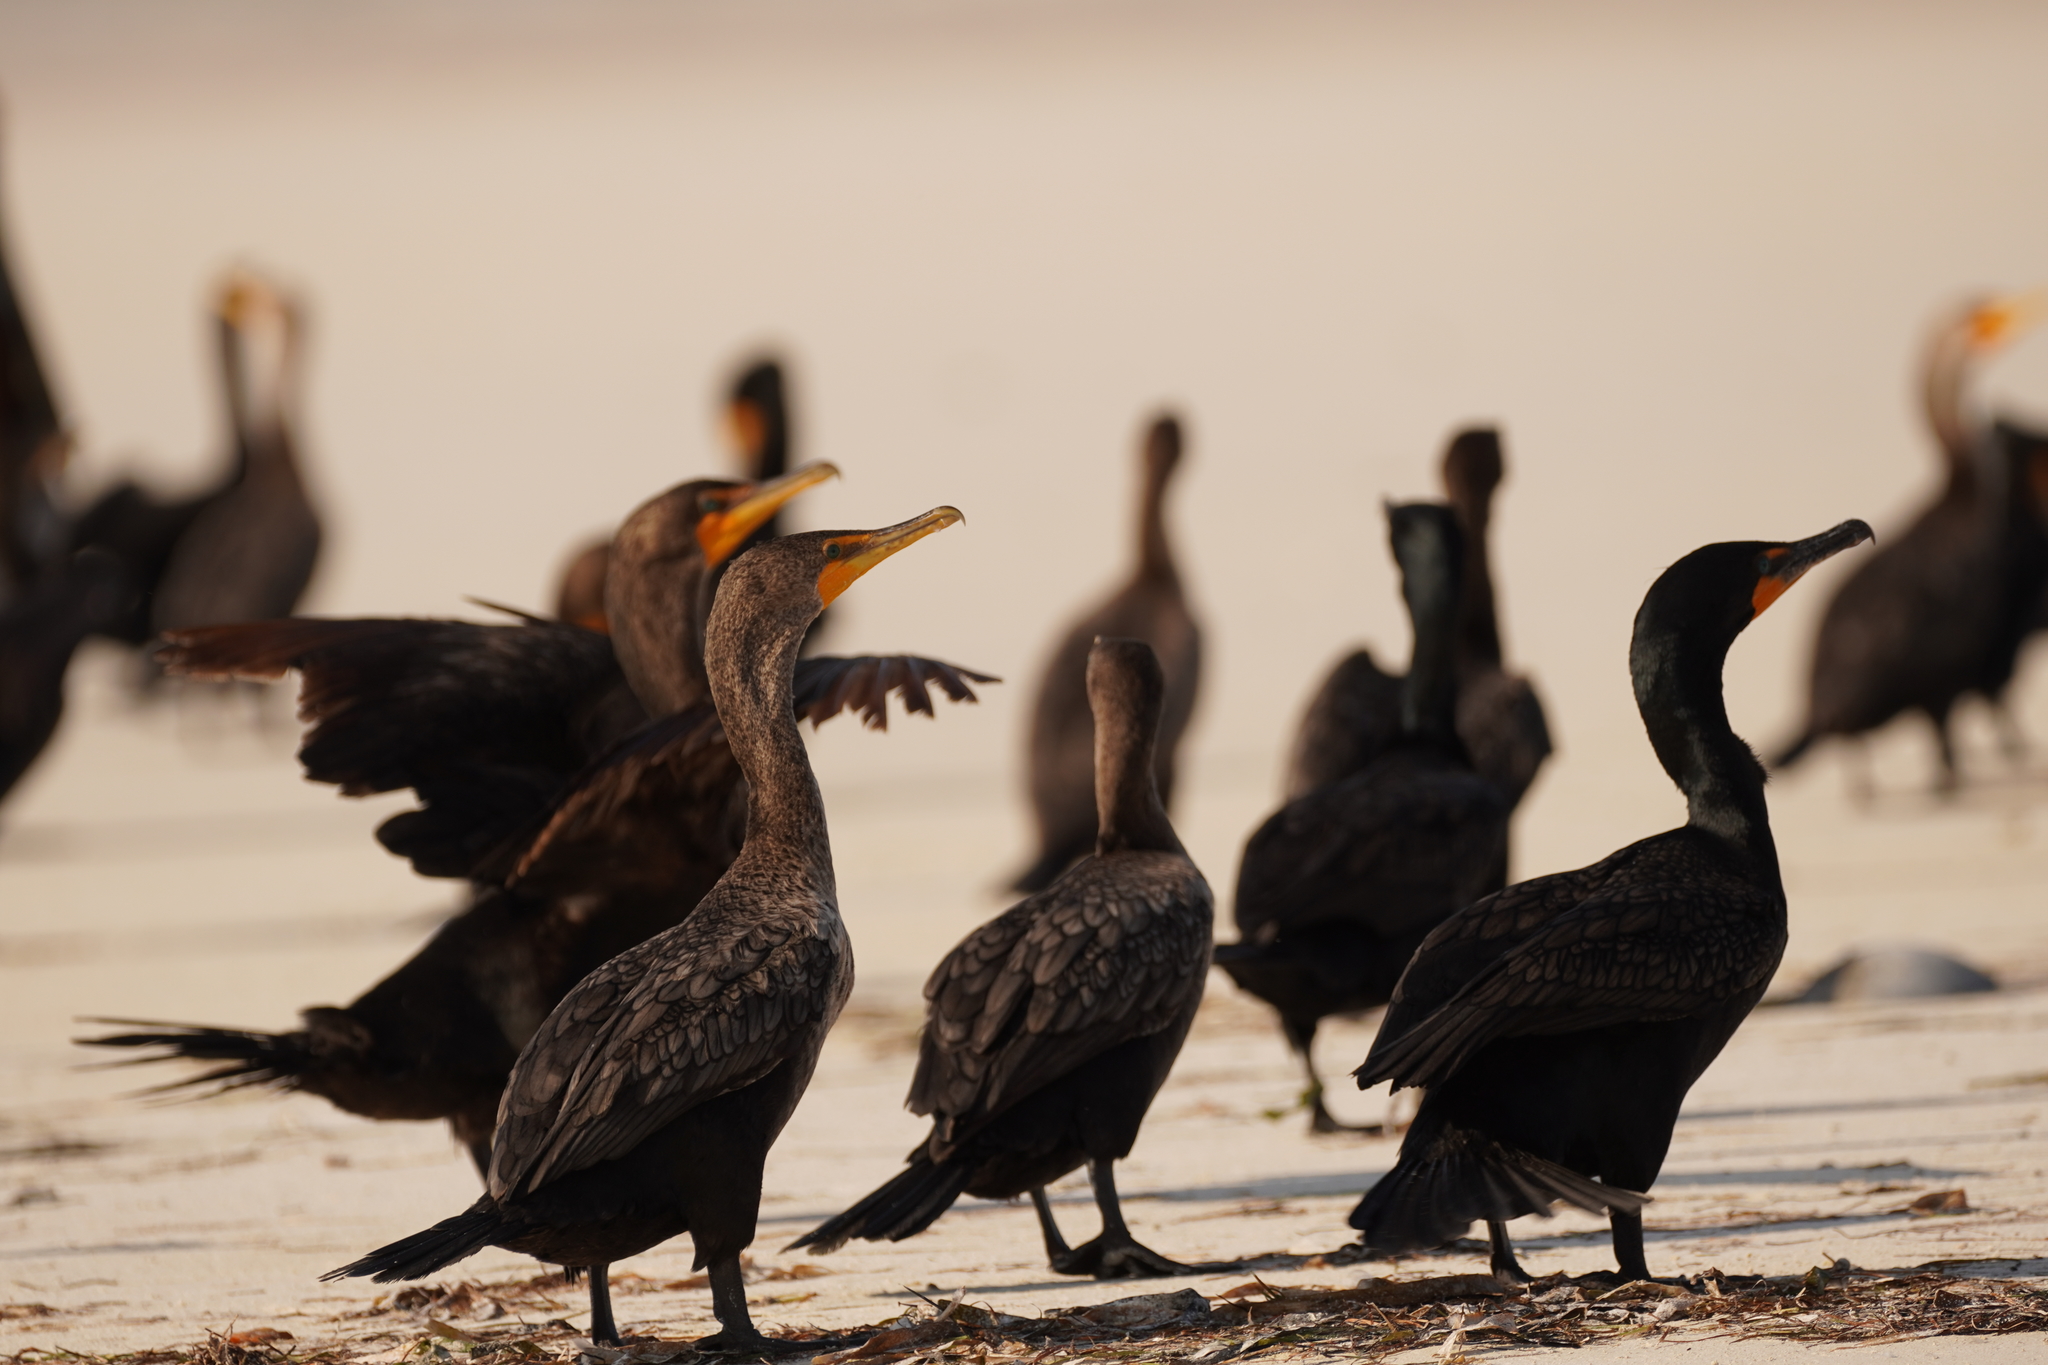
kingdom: Animalia
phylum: Chordata
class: Aves
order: Suliformes
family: Phalacrocoracidae
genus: Phalacrocorax
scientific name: Phalacrocorax auritus
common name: Double-crested cormorant
